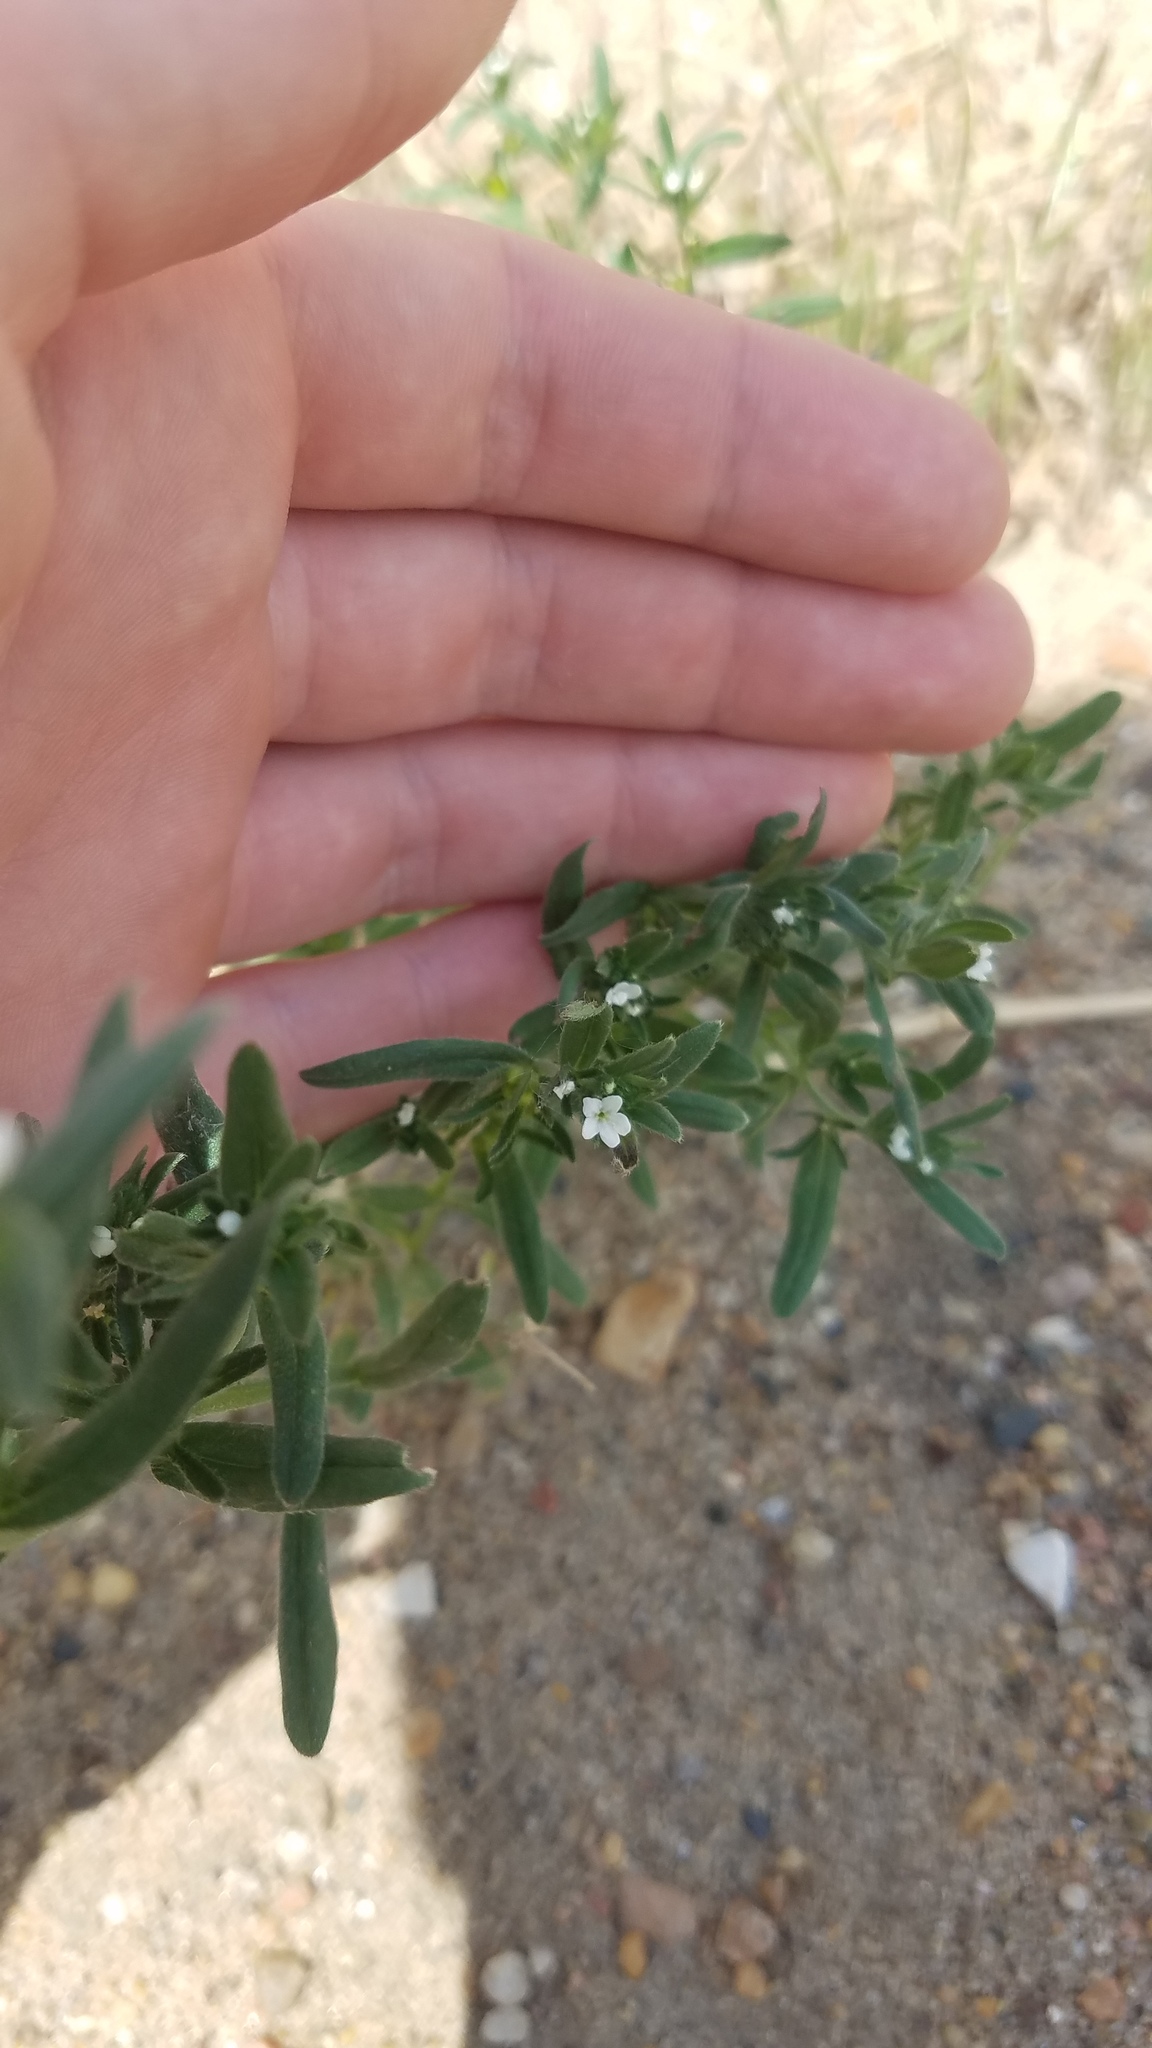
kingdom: Plantae
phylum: Tracheophyta
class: Magnoliopsida
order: Boraginales
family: Boraginaceae
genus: Buglossoides
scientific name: Buglossoides arvensis
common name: Corn gromwell
